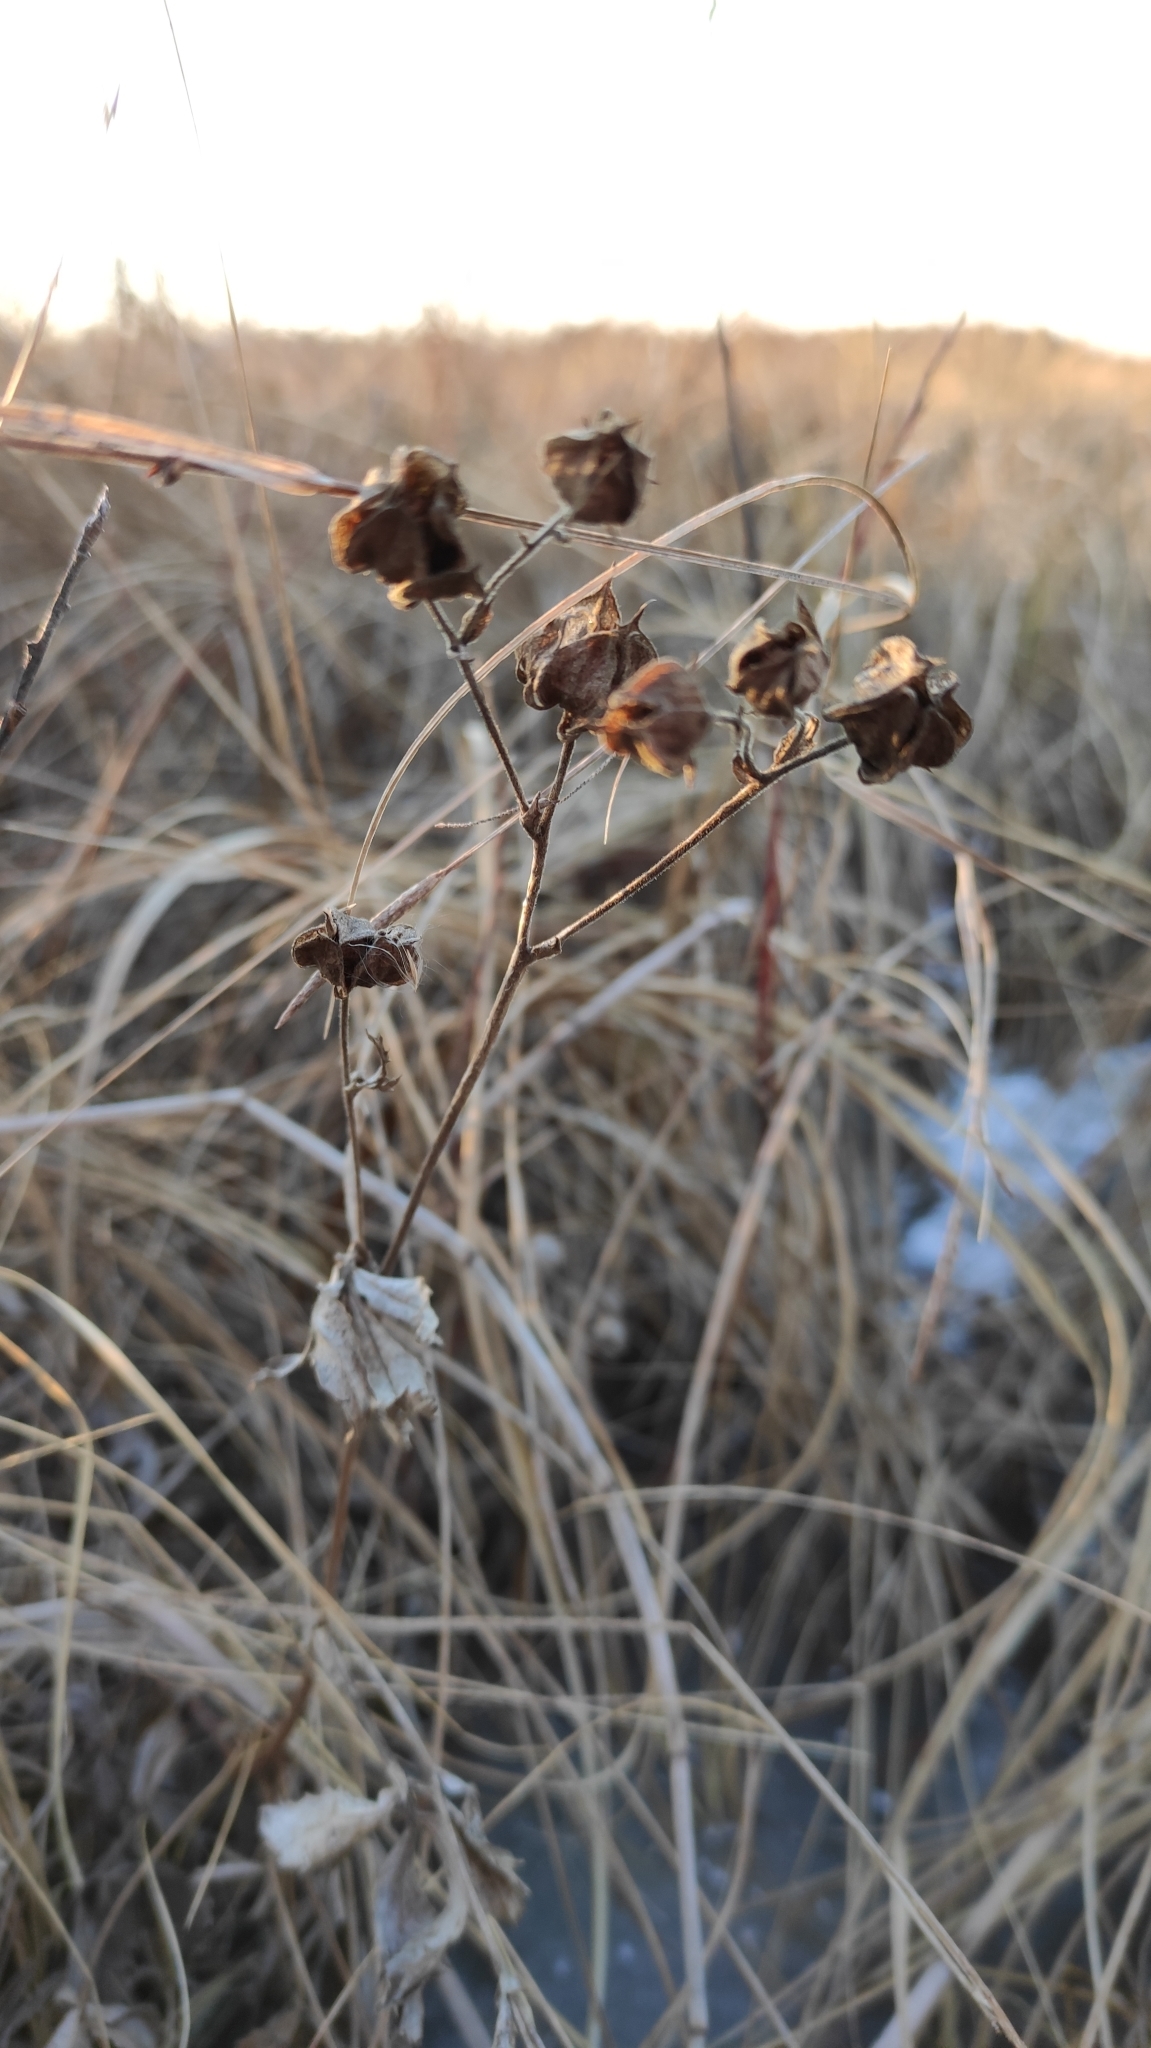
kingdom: Plantae
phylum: Tracheophyta
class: Magnoliopsida
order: Rosales
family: Rosaceae
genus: Comarum
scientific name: Comarum palustre
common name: Marsh cinquefoil
